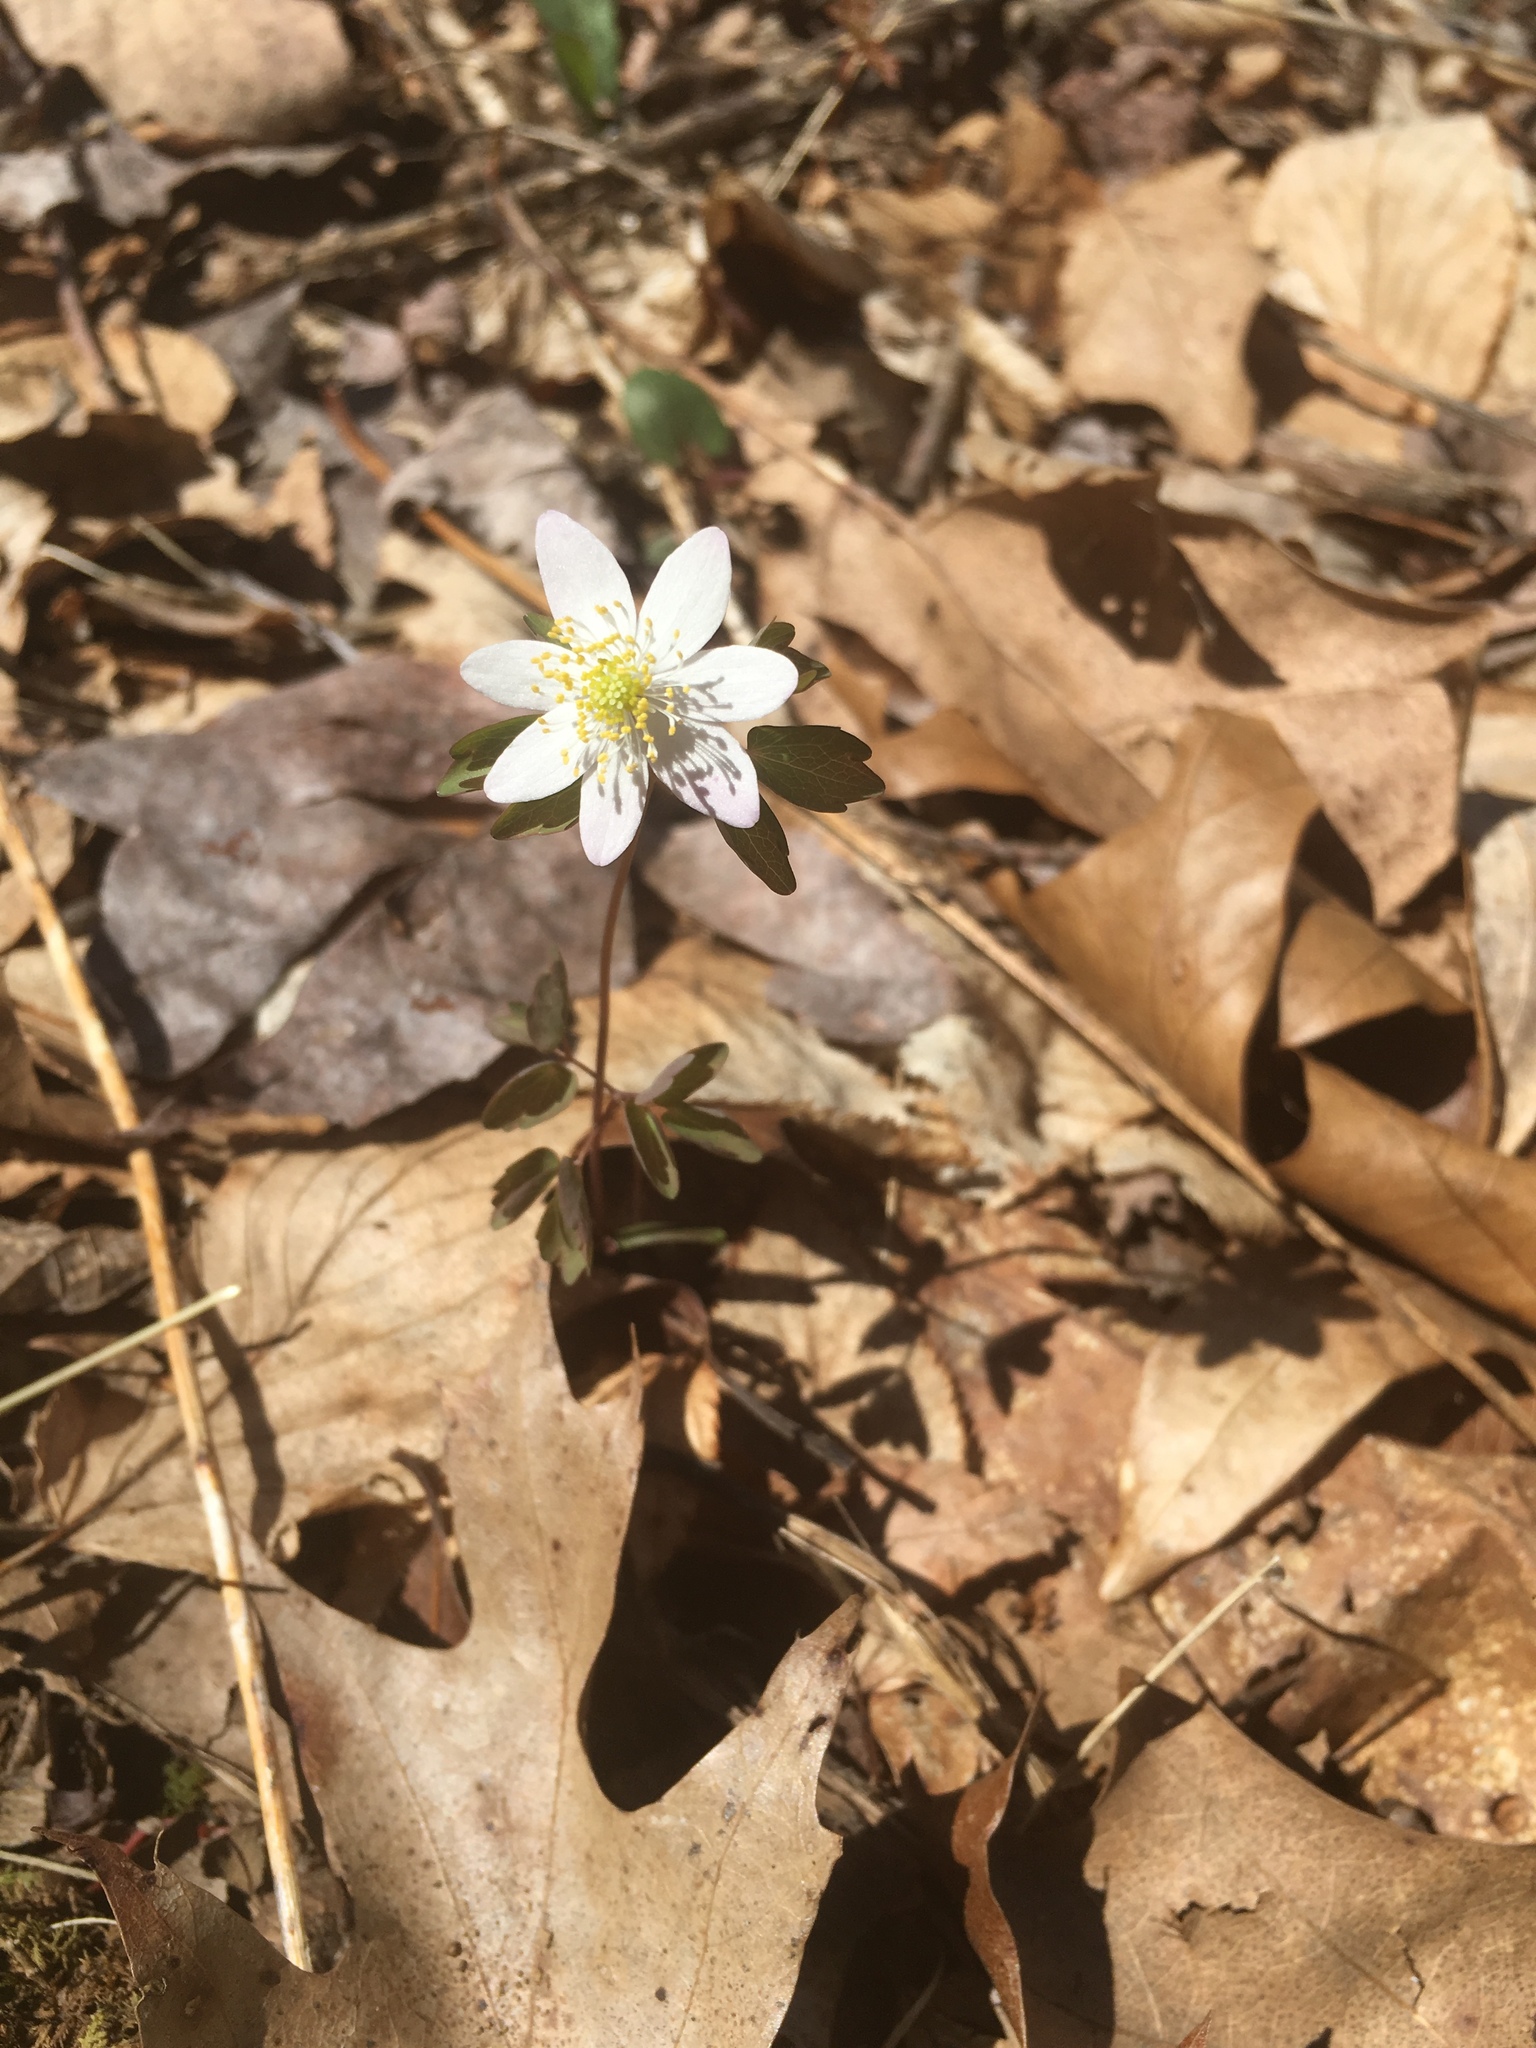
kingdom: Plantae
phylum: Tracheophyta
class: Magnoliopsida
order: Ranunculales
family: Ranunculaceae
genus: Thalictrum
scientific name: Thalictrum thalictroides
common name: Rue-anemone
